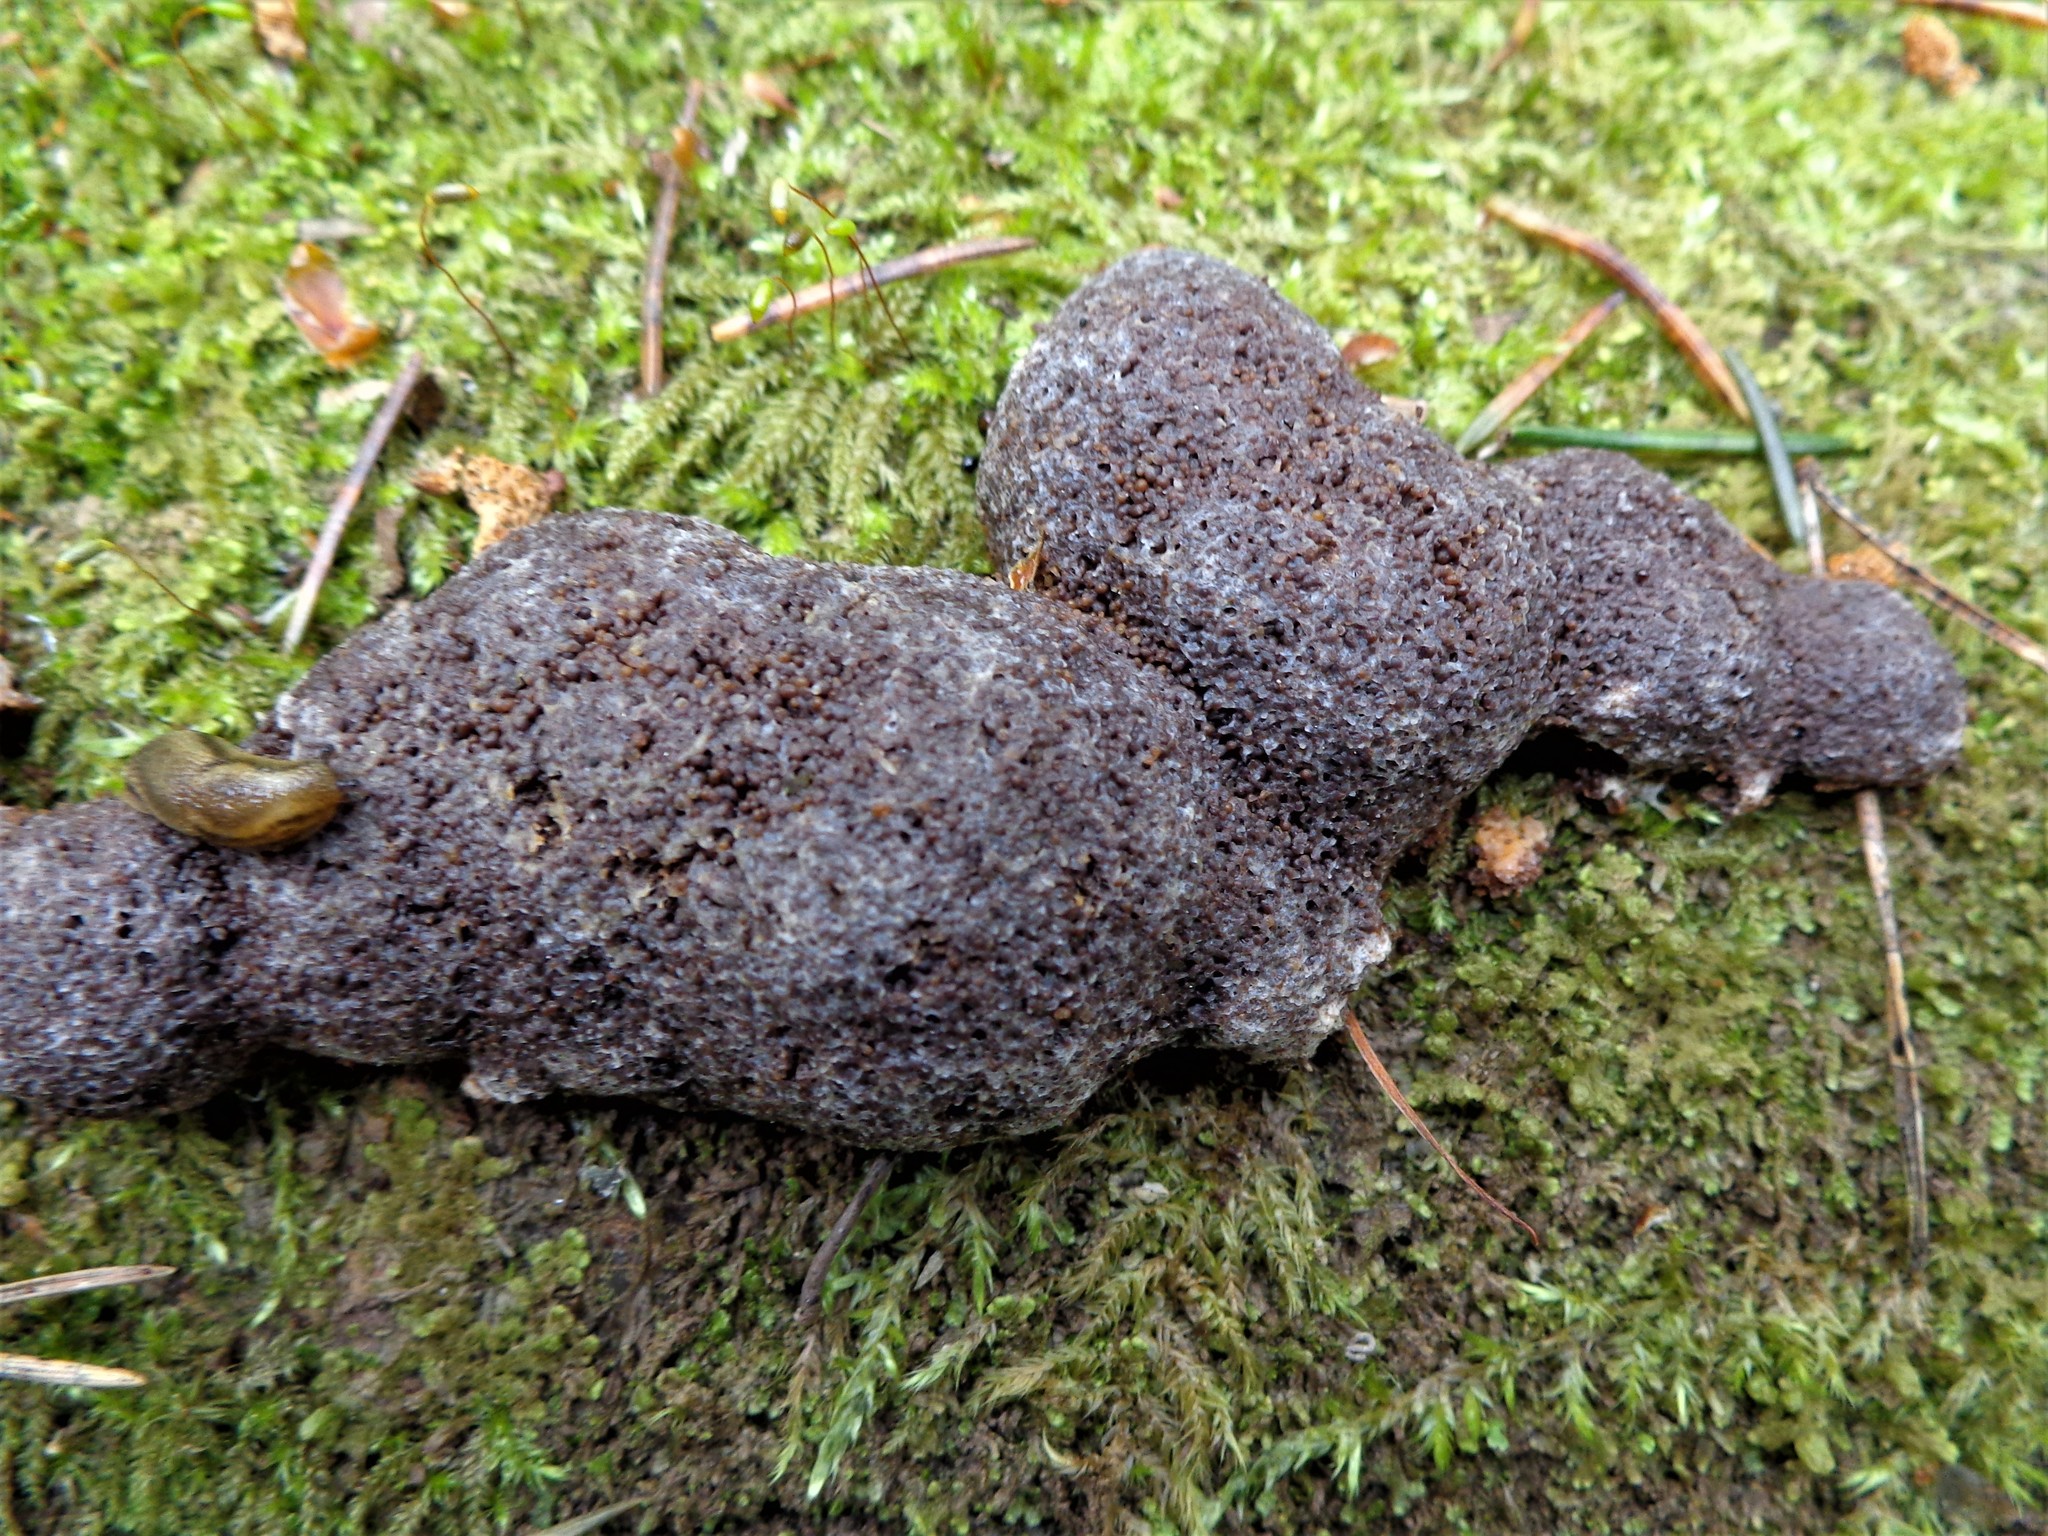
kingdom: Protozoa
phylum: Mycetozoa
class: Myxomycetes
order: Cribrariales
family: Tubiferaceae
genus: Tubifera
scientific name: Tubifera dudkae
